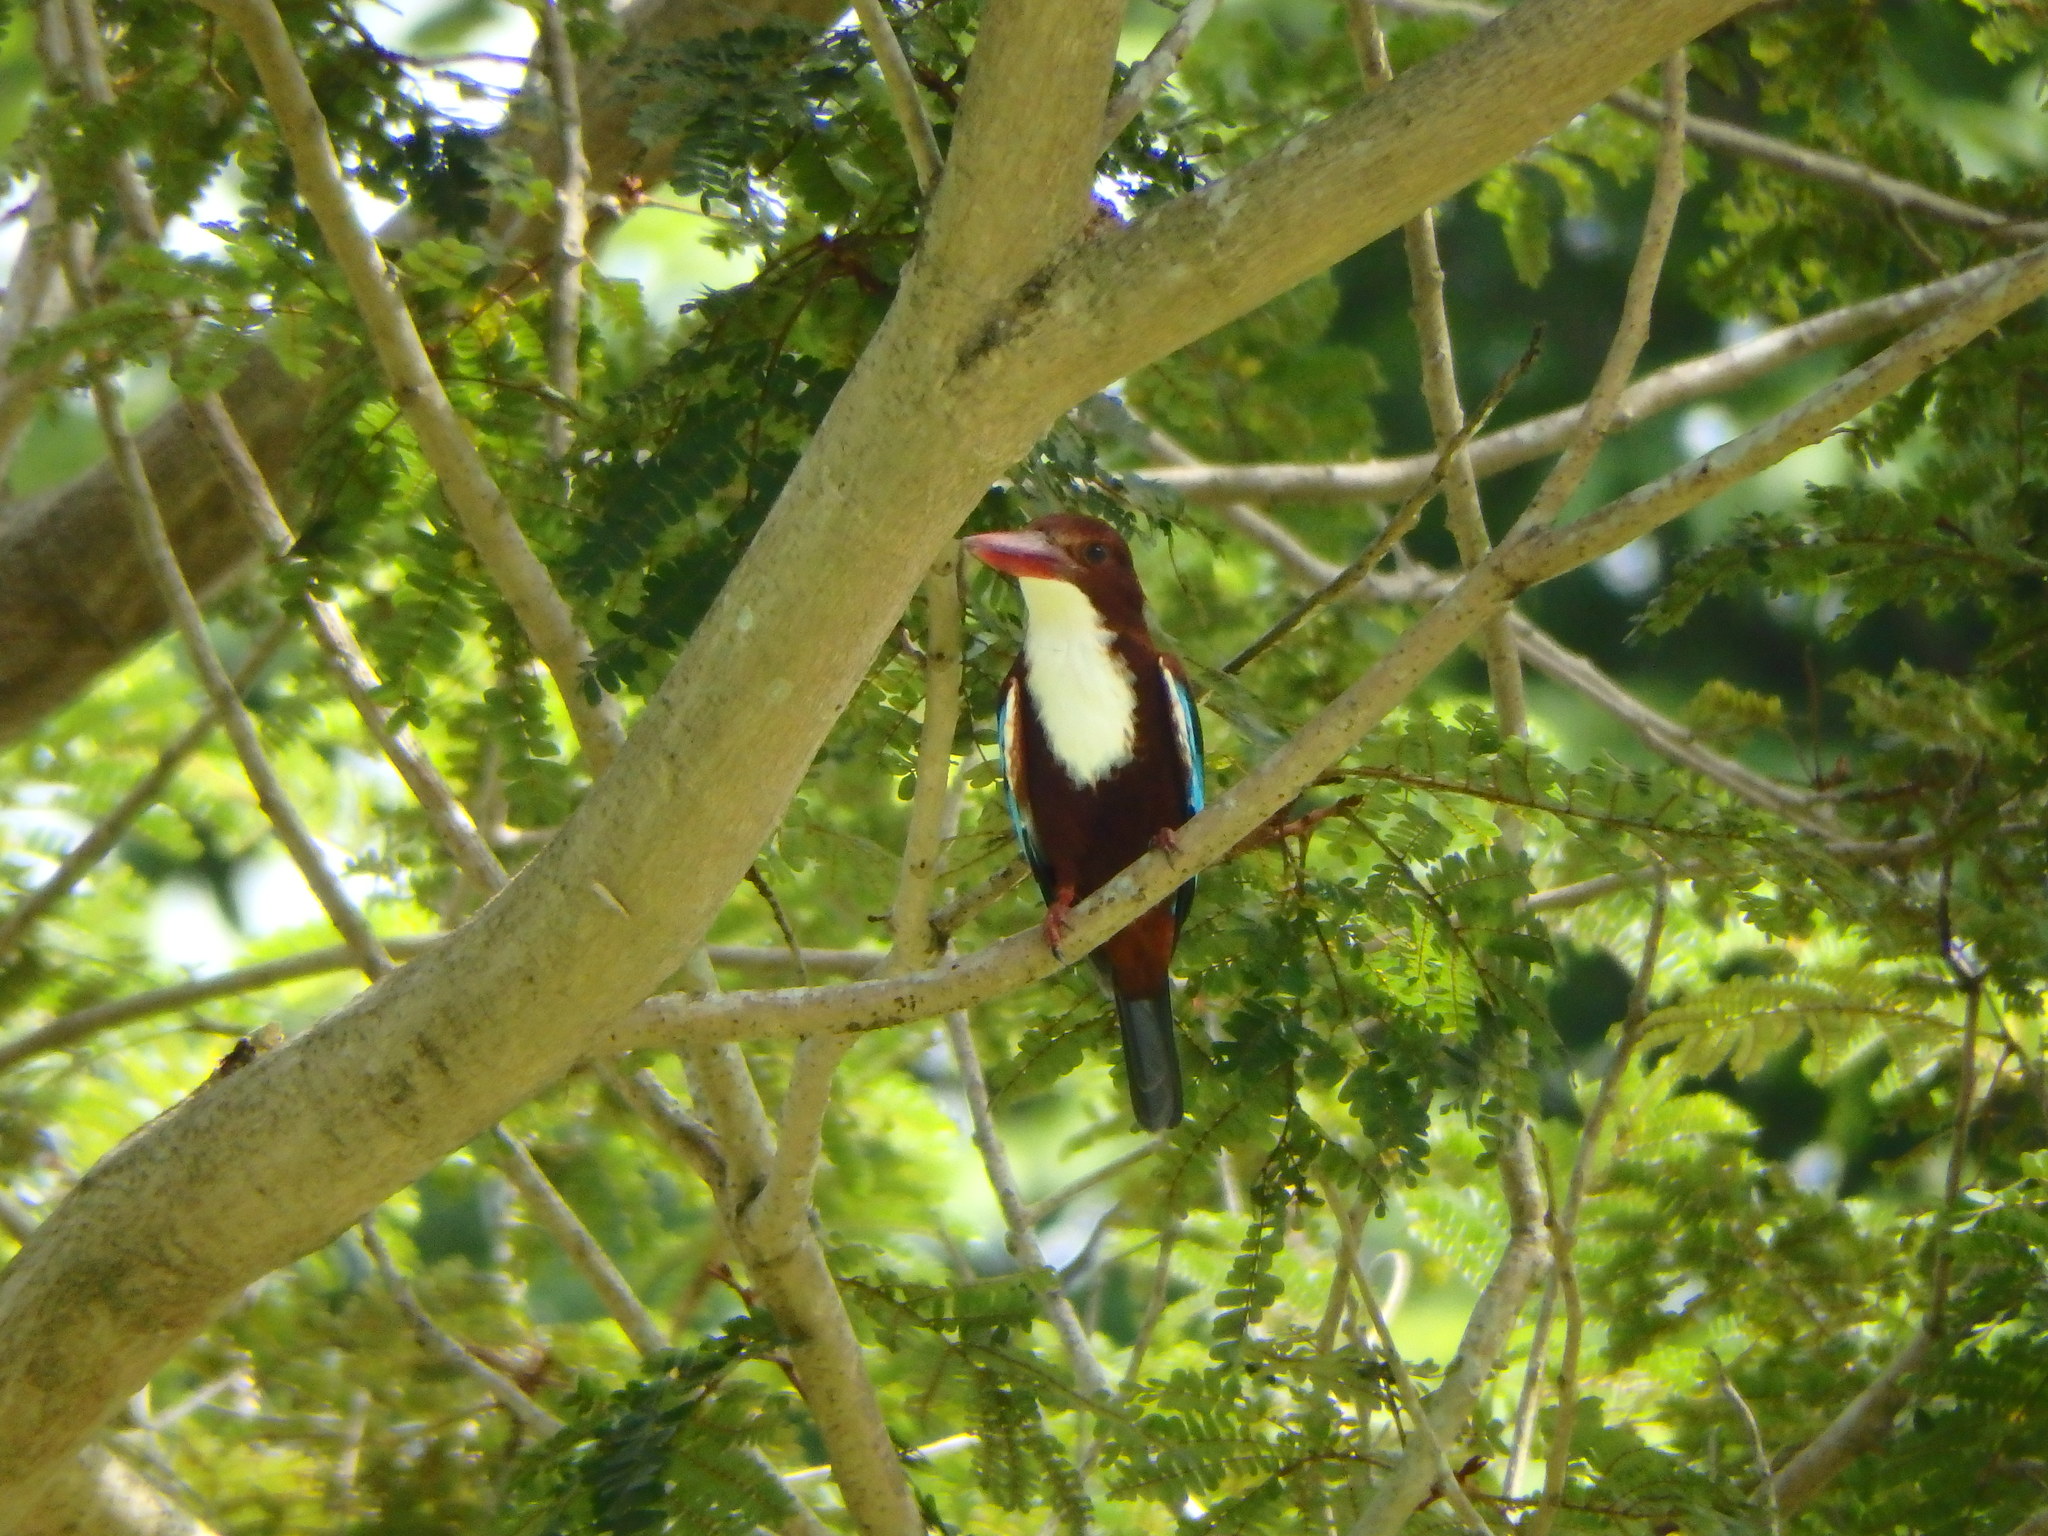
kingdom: Animalia
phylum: Chordata
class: Aves
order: Coraciiformes
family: Alcedinidae
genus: Halcyon
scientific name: Halcyon smyrnensis
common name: White-throated kingfisher
